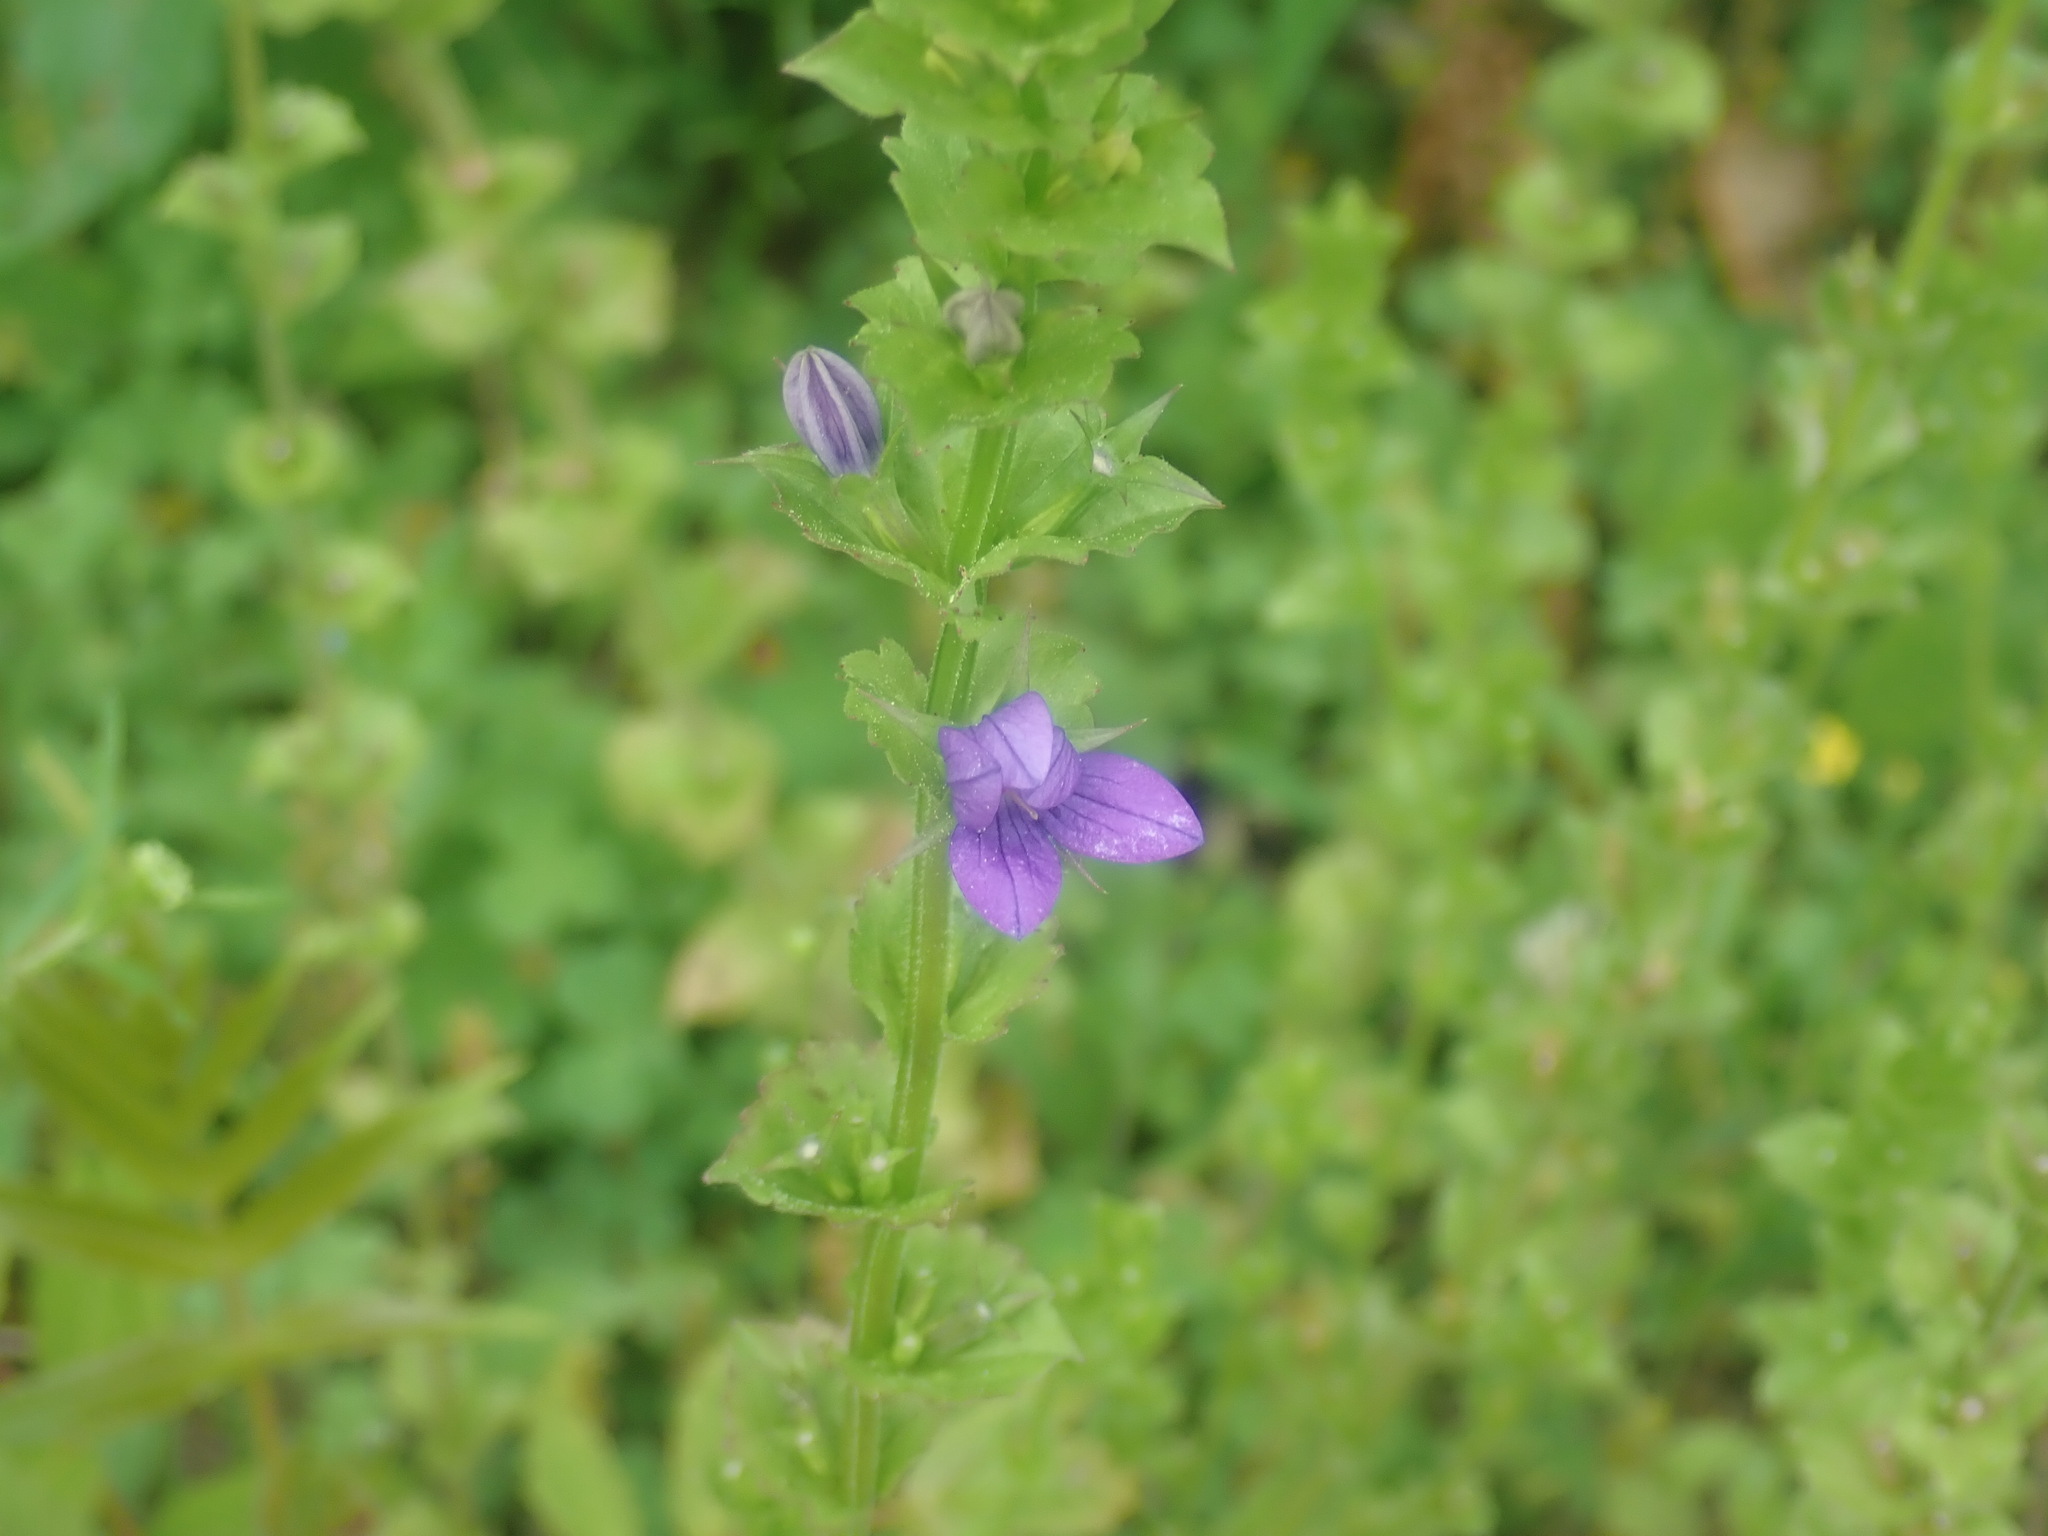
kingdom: Plantae
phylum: Tracheophyta
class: Magnoliopsida
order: Asterales
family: Campanulaceae
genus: Triodanis
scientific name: Triodanis perfoliata
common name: Clasping venus' looking-glass
